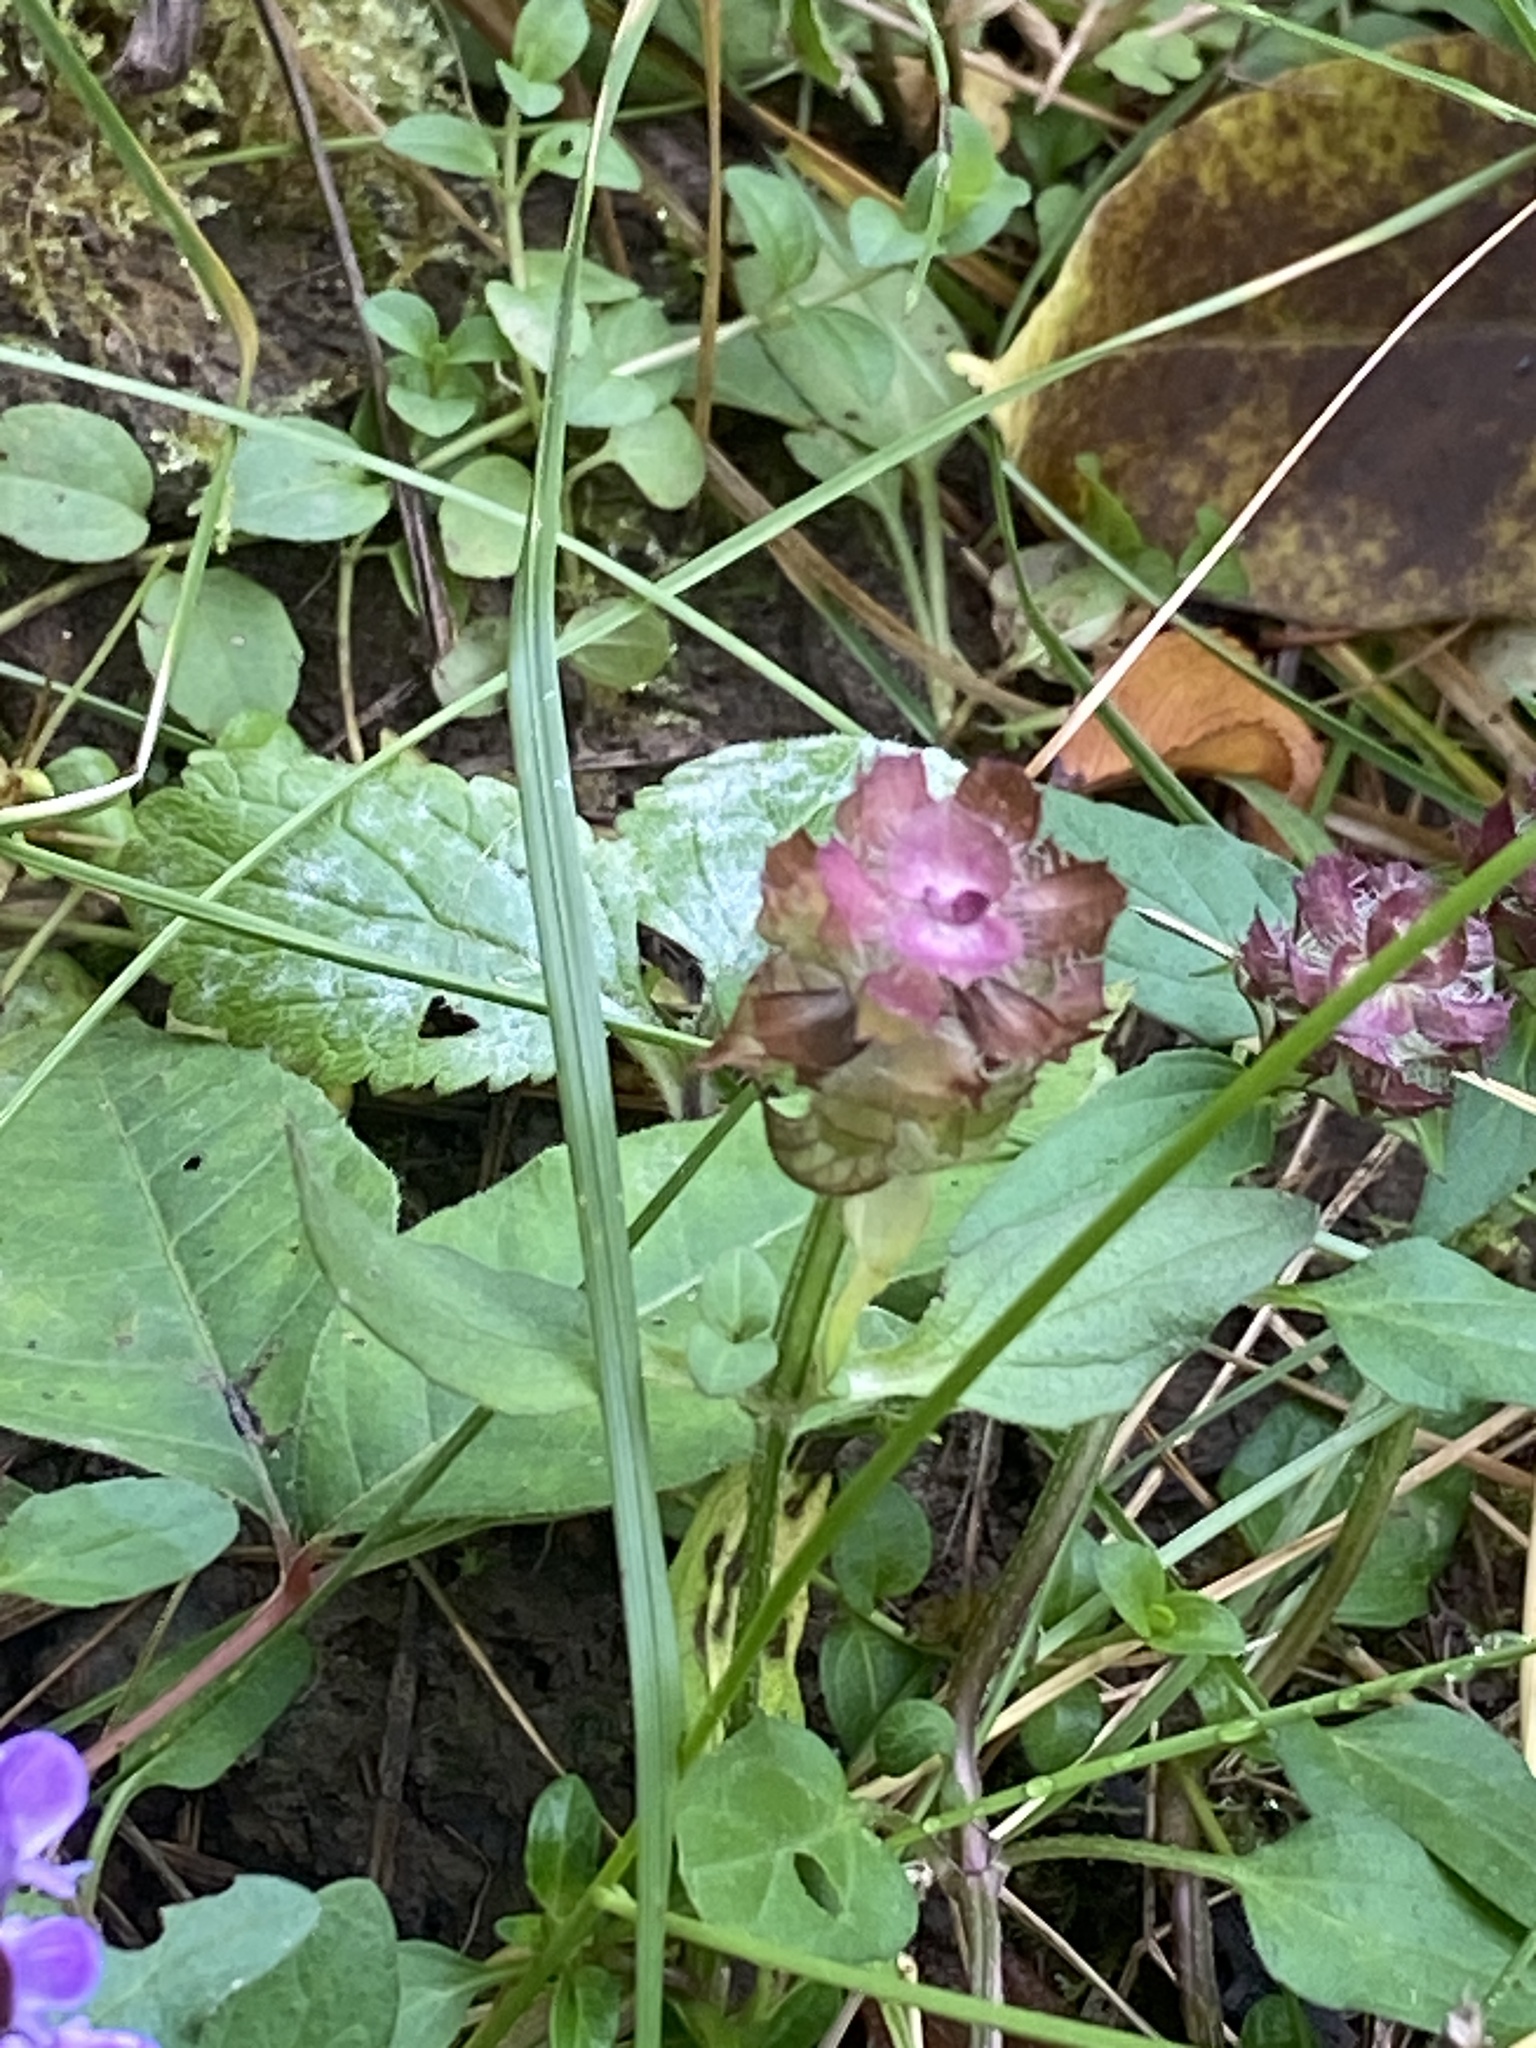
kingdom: Plantae
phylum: Tracheophyta
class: Magnoliopsida
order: Lamiales
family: Lamiaceae
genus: Prunella
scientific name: Prunella vulgaris
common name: Heal-all
